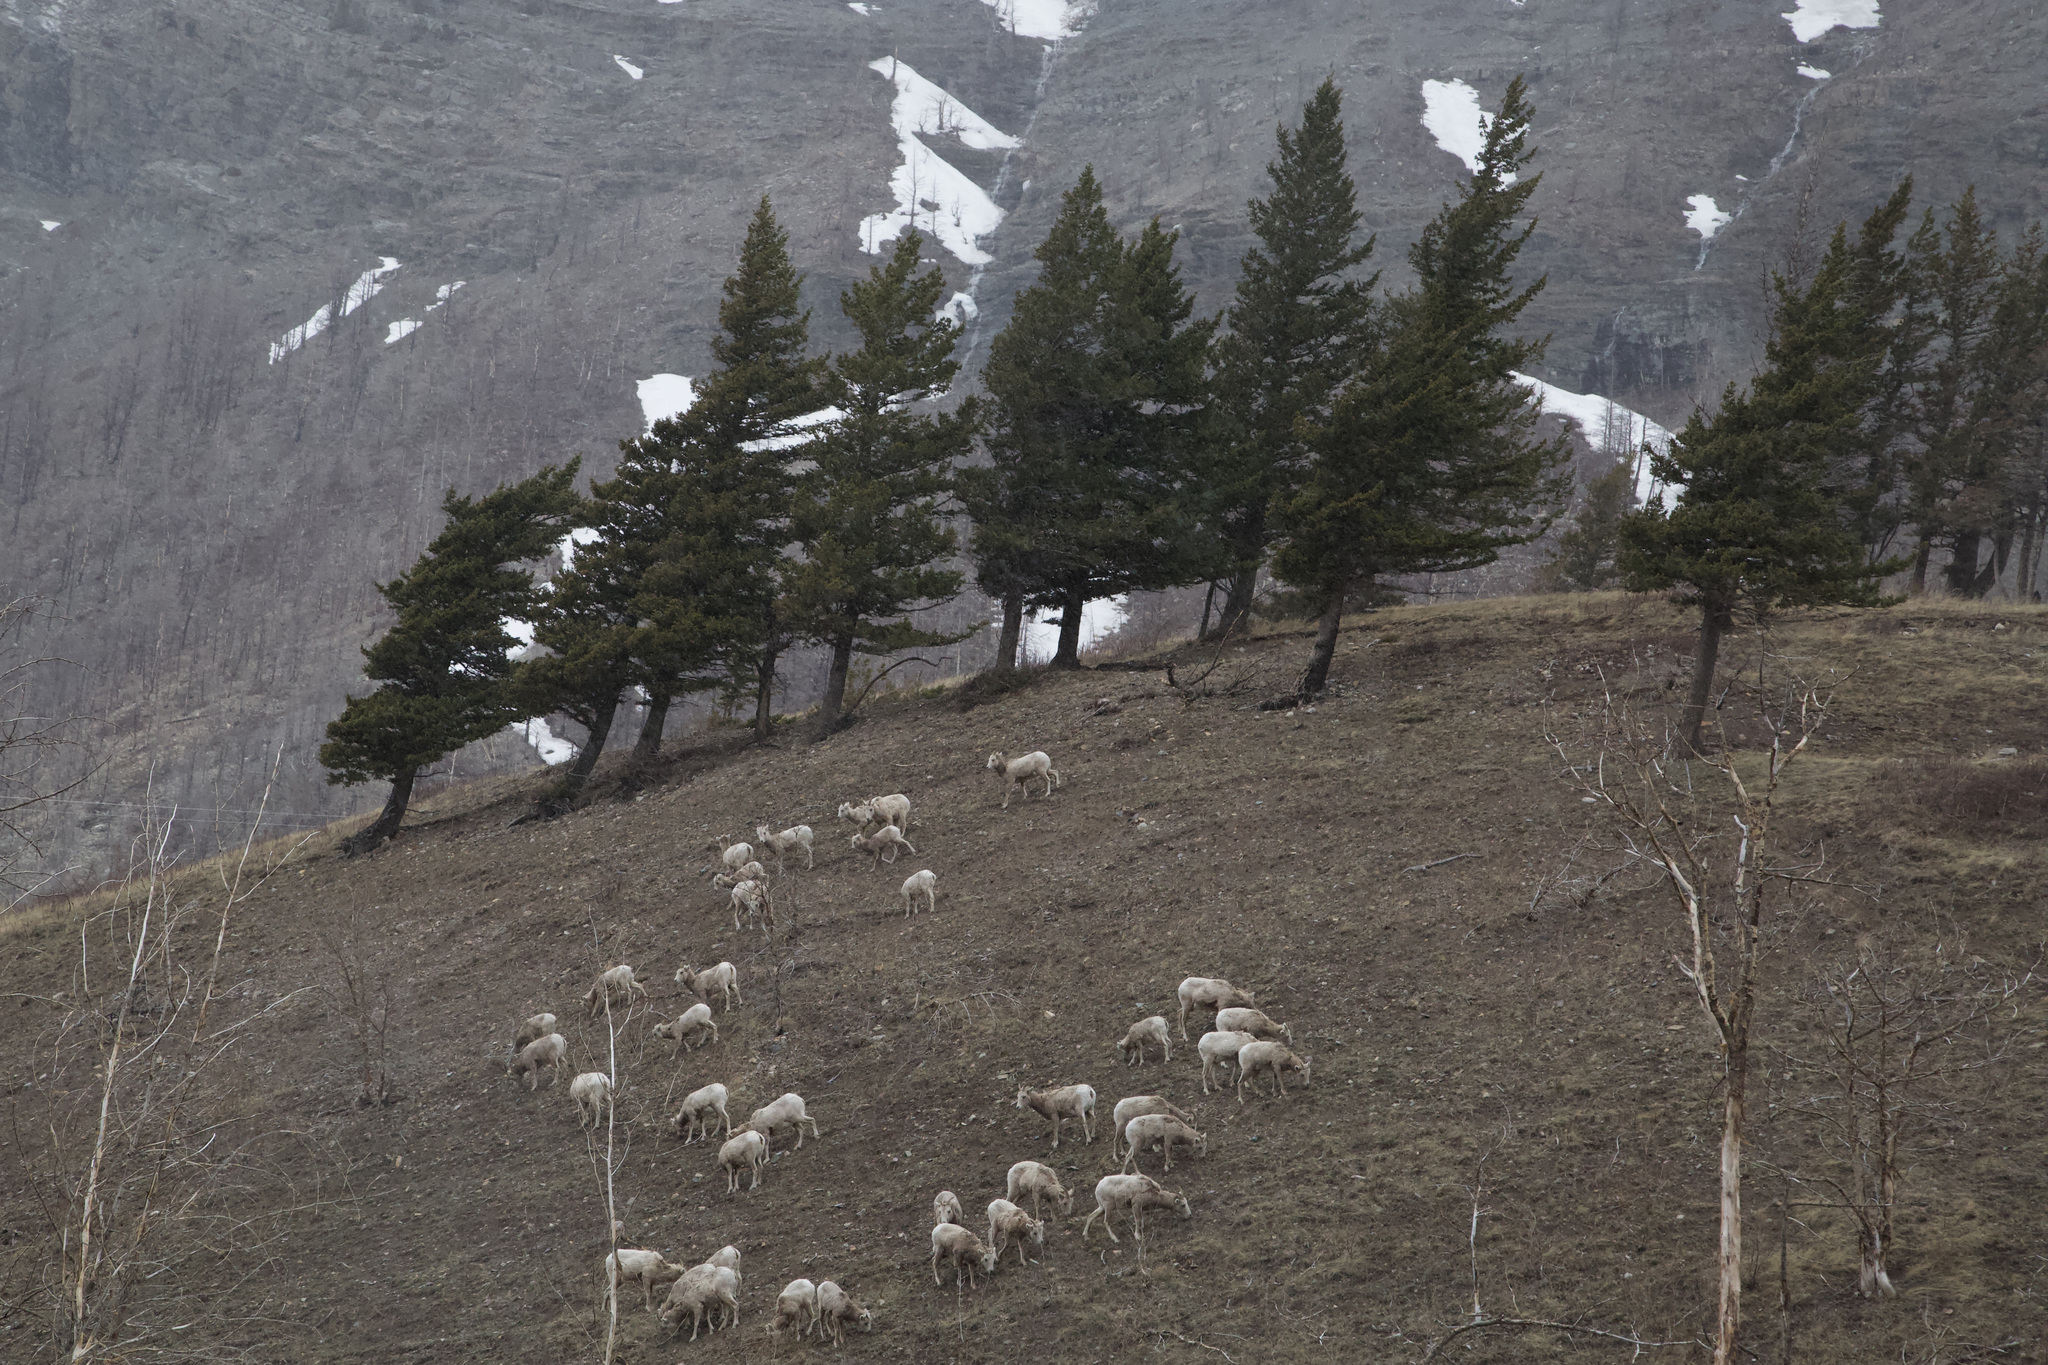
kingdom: Animalia
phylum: Chordata
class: Mammalia
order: Artiodactyla
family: Bovidae
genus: Ovis
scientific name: Ovis canadensis
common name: Bighorn sheep
